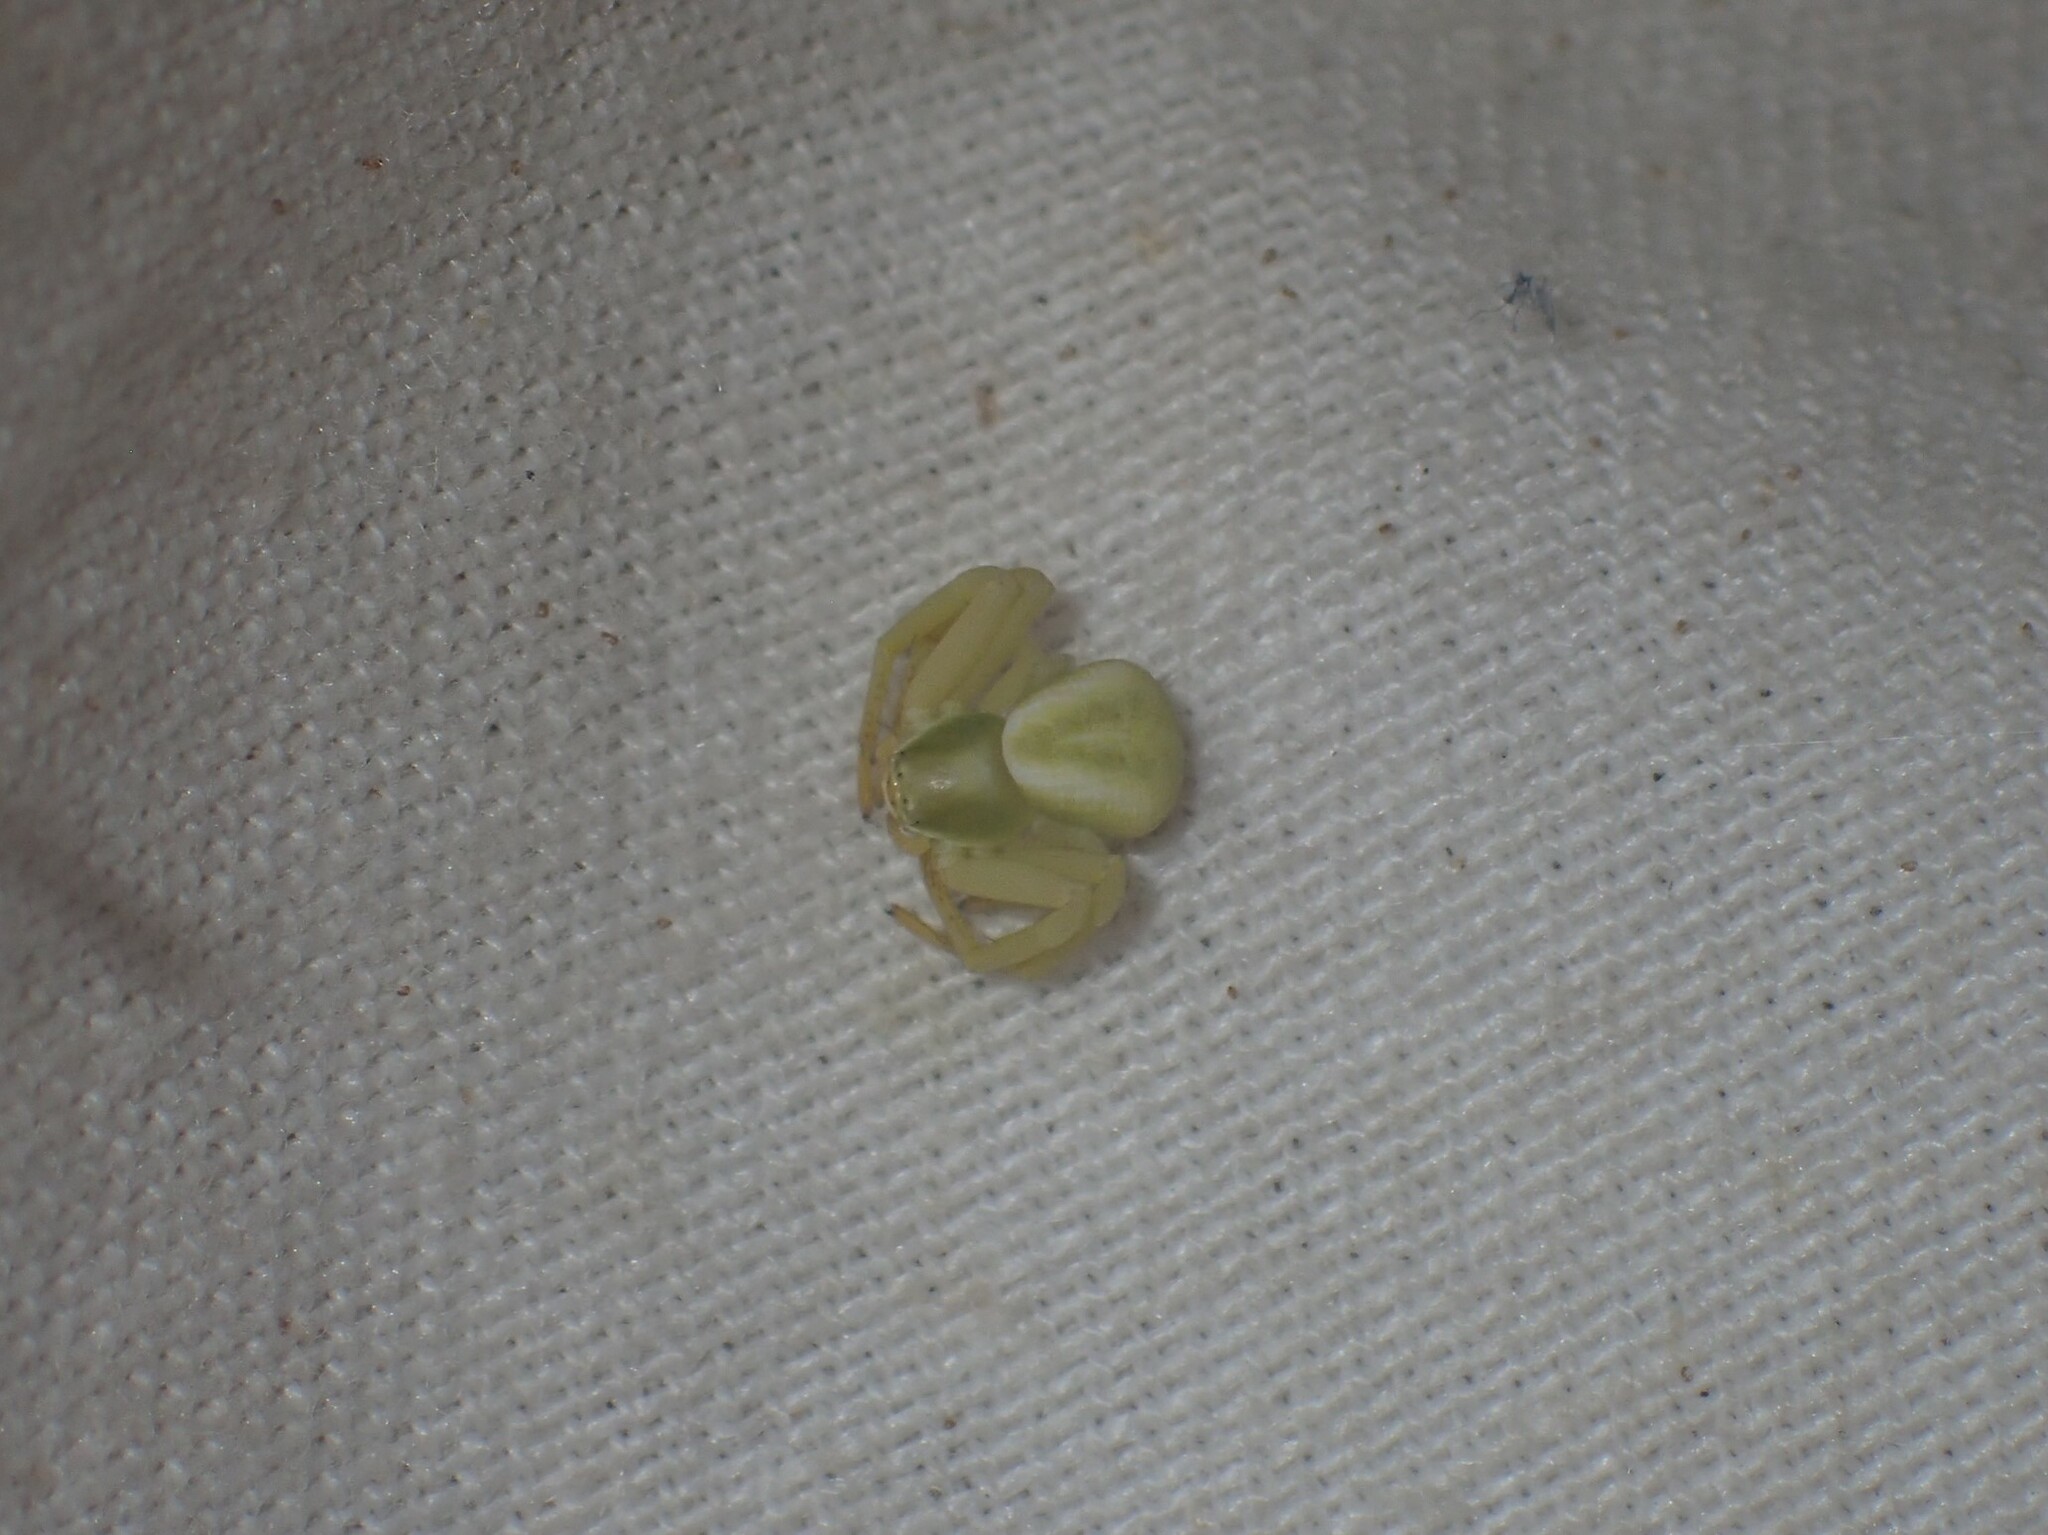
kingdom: Animalia
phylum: Arthropoda
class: Arachnida
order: Araneae
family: Thomisidae
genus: Misumenoides
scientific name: Misumenoides formosipes
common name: White-banded crab spider
